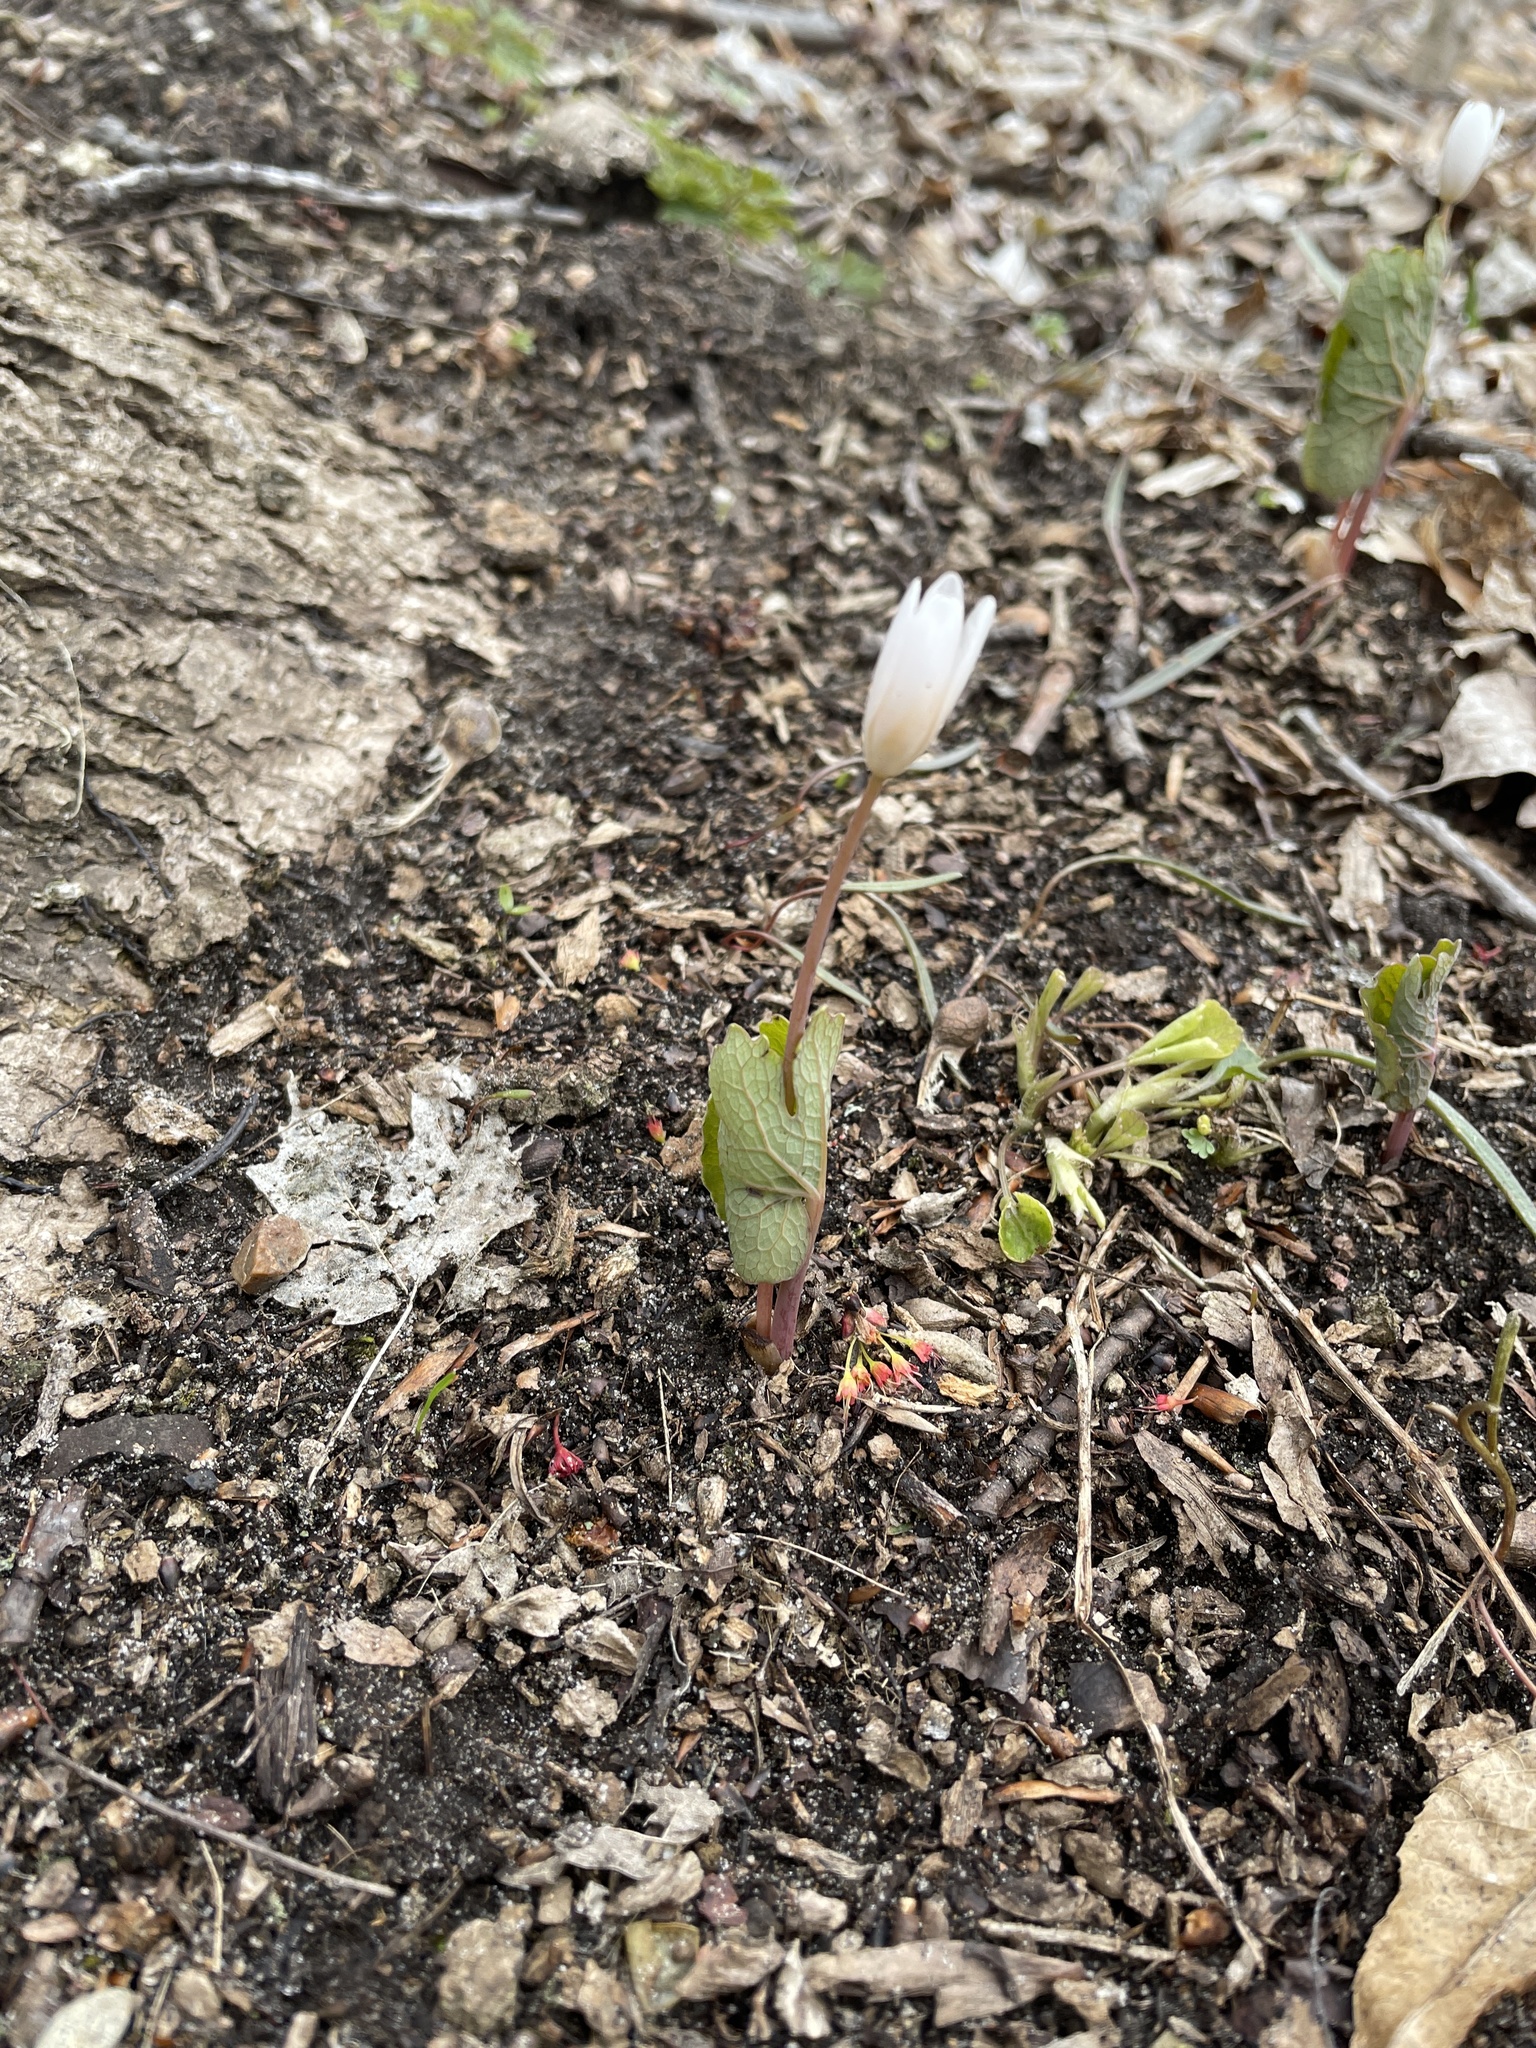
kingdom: Plantae
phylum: Tracheophyta
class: Magnoliopsida
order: Ranunculales
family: Papaveraceae
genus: Sanguinaria
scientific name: Sanguinaria canadensis
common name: Bloodroot
